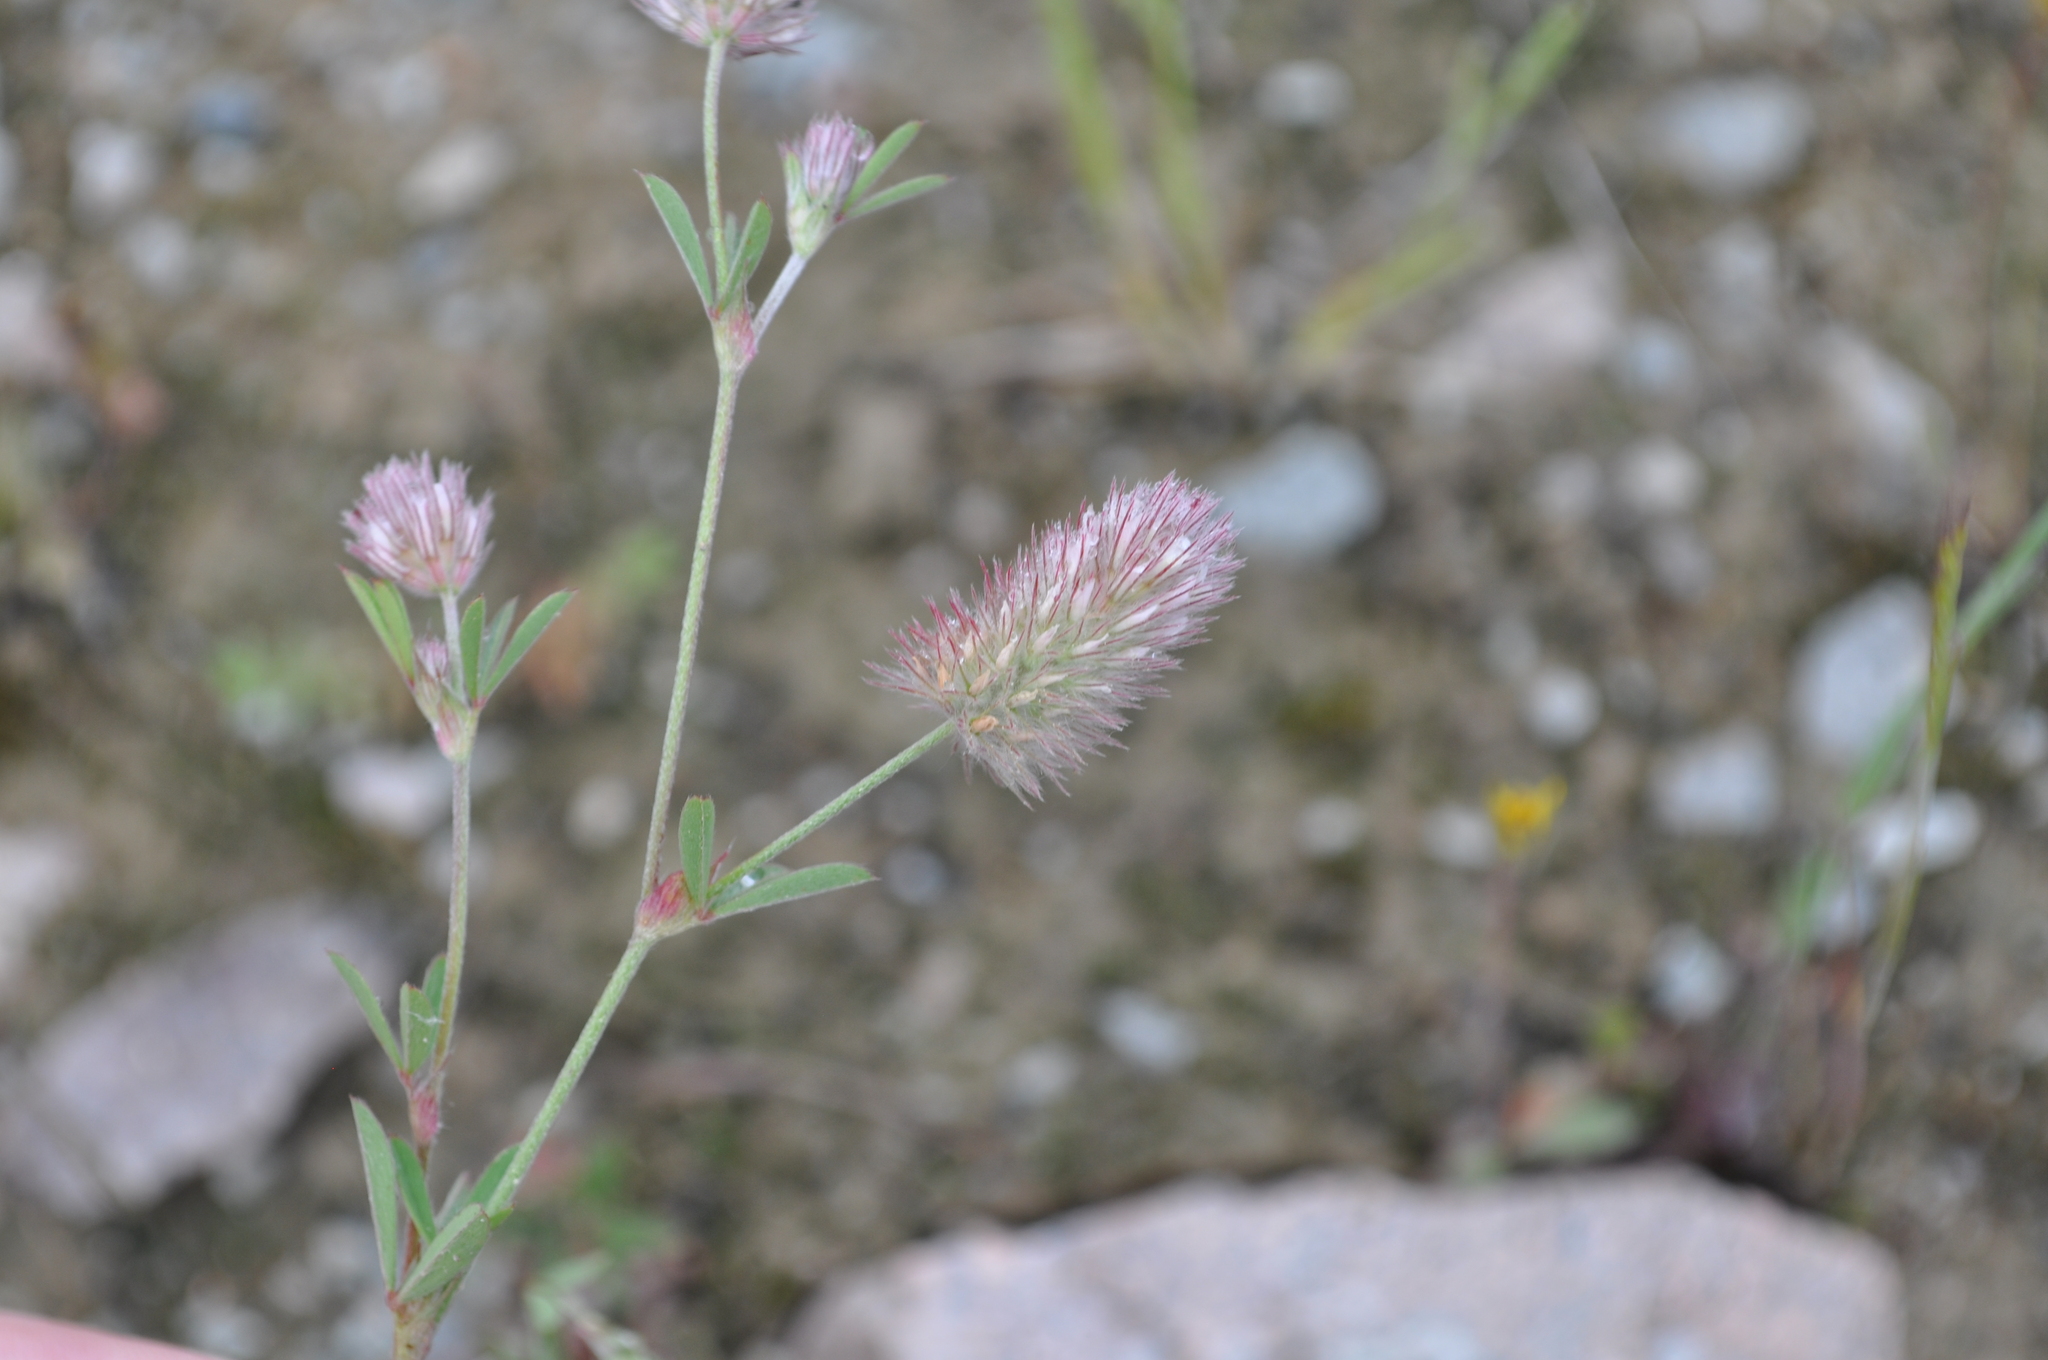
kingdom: Plantae
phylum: Tracheophyta
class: Magnoliopsida
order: Fabales
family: Fabaceae
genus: Trifolium
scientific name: Trifolium arvense
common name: Hare's-foot clover
